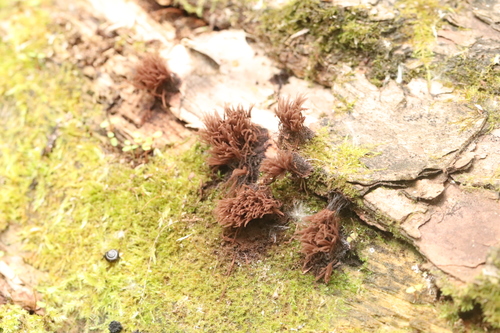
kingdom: Protozoa
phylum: Mycetozoa
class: Myxomycetes
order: Stemonitidales
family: Stemonitidaceae
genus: Stemonitis
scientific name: Stemonitis
